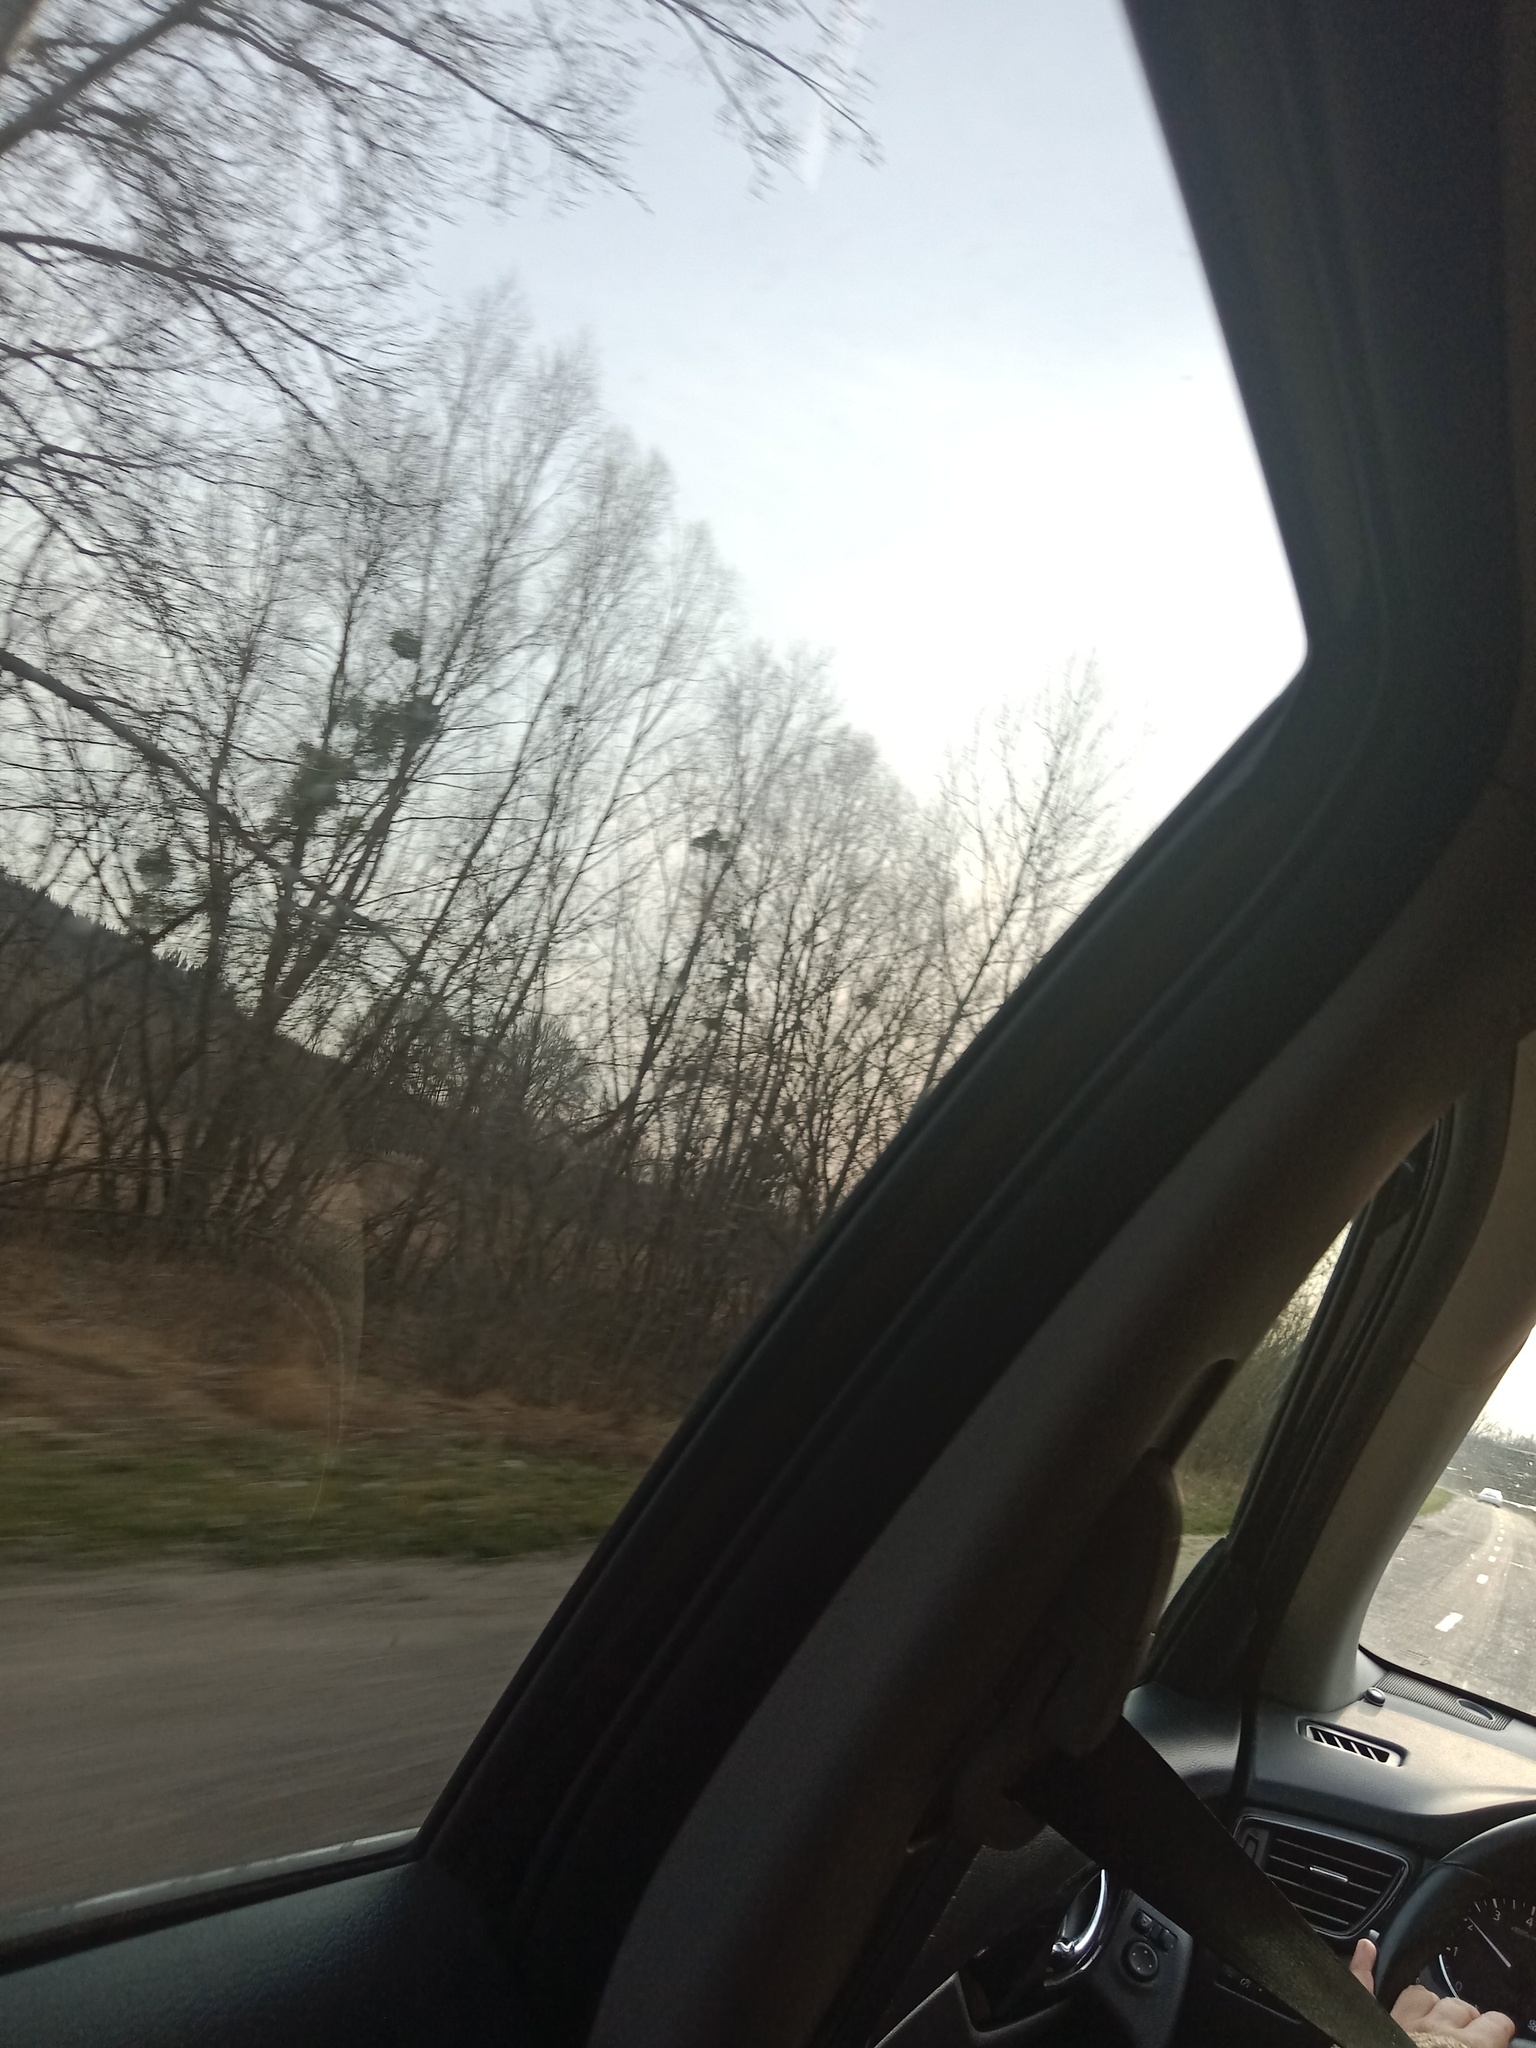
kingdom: Plantae
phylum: Tracheophyta
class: Magnoliopsida
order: Santalales
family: Viscaceae
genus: Viscum
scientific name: Viscum album
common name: Mistletoe
